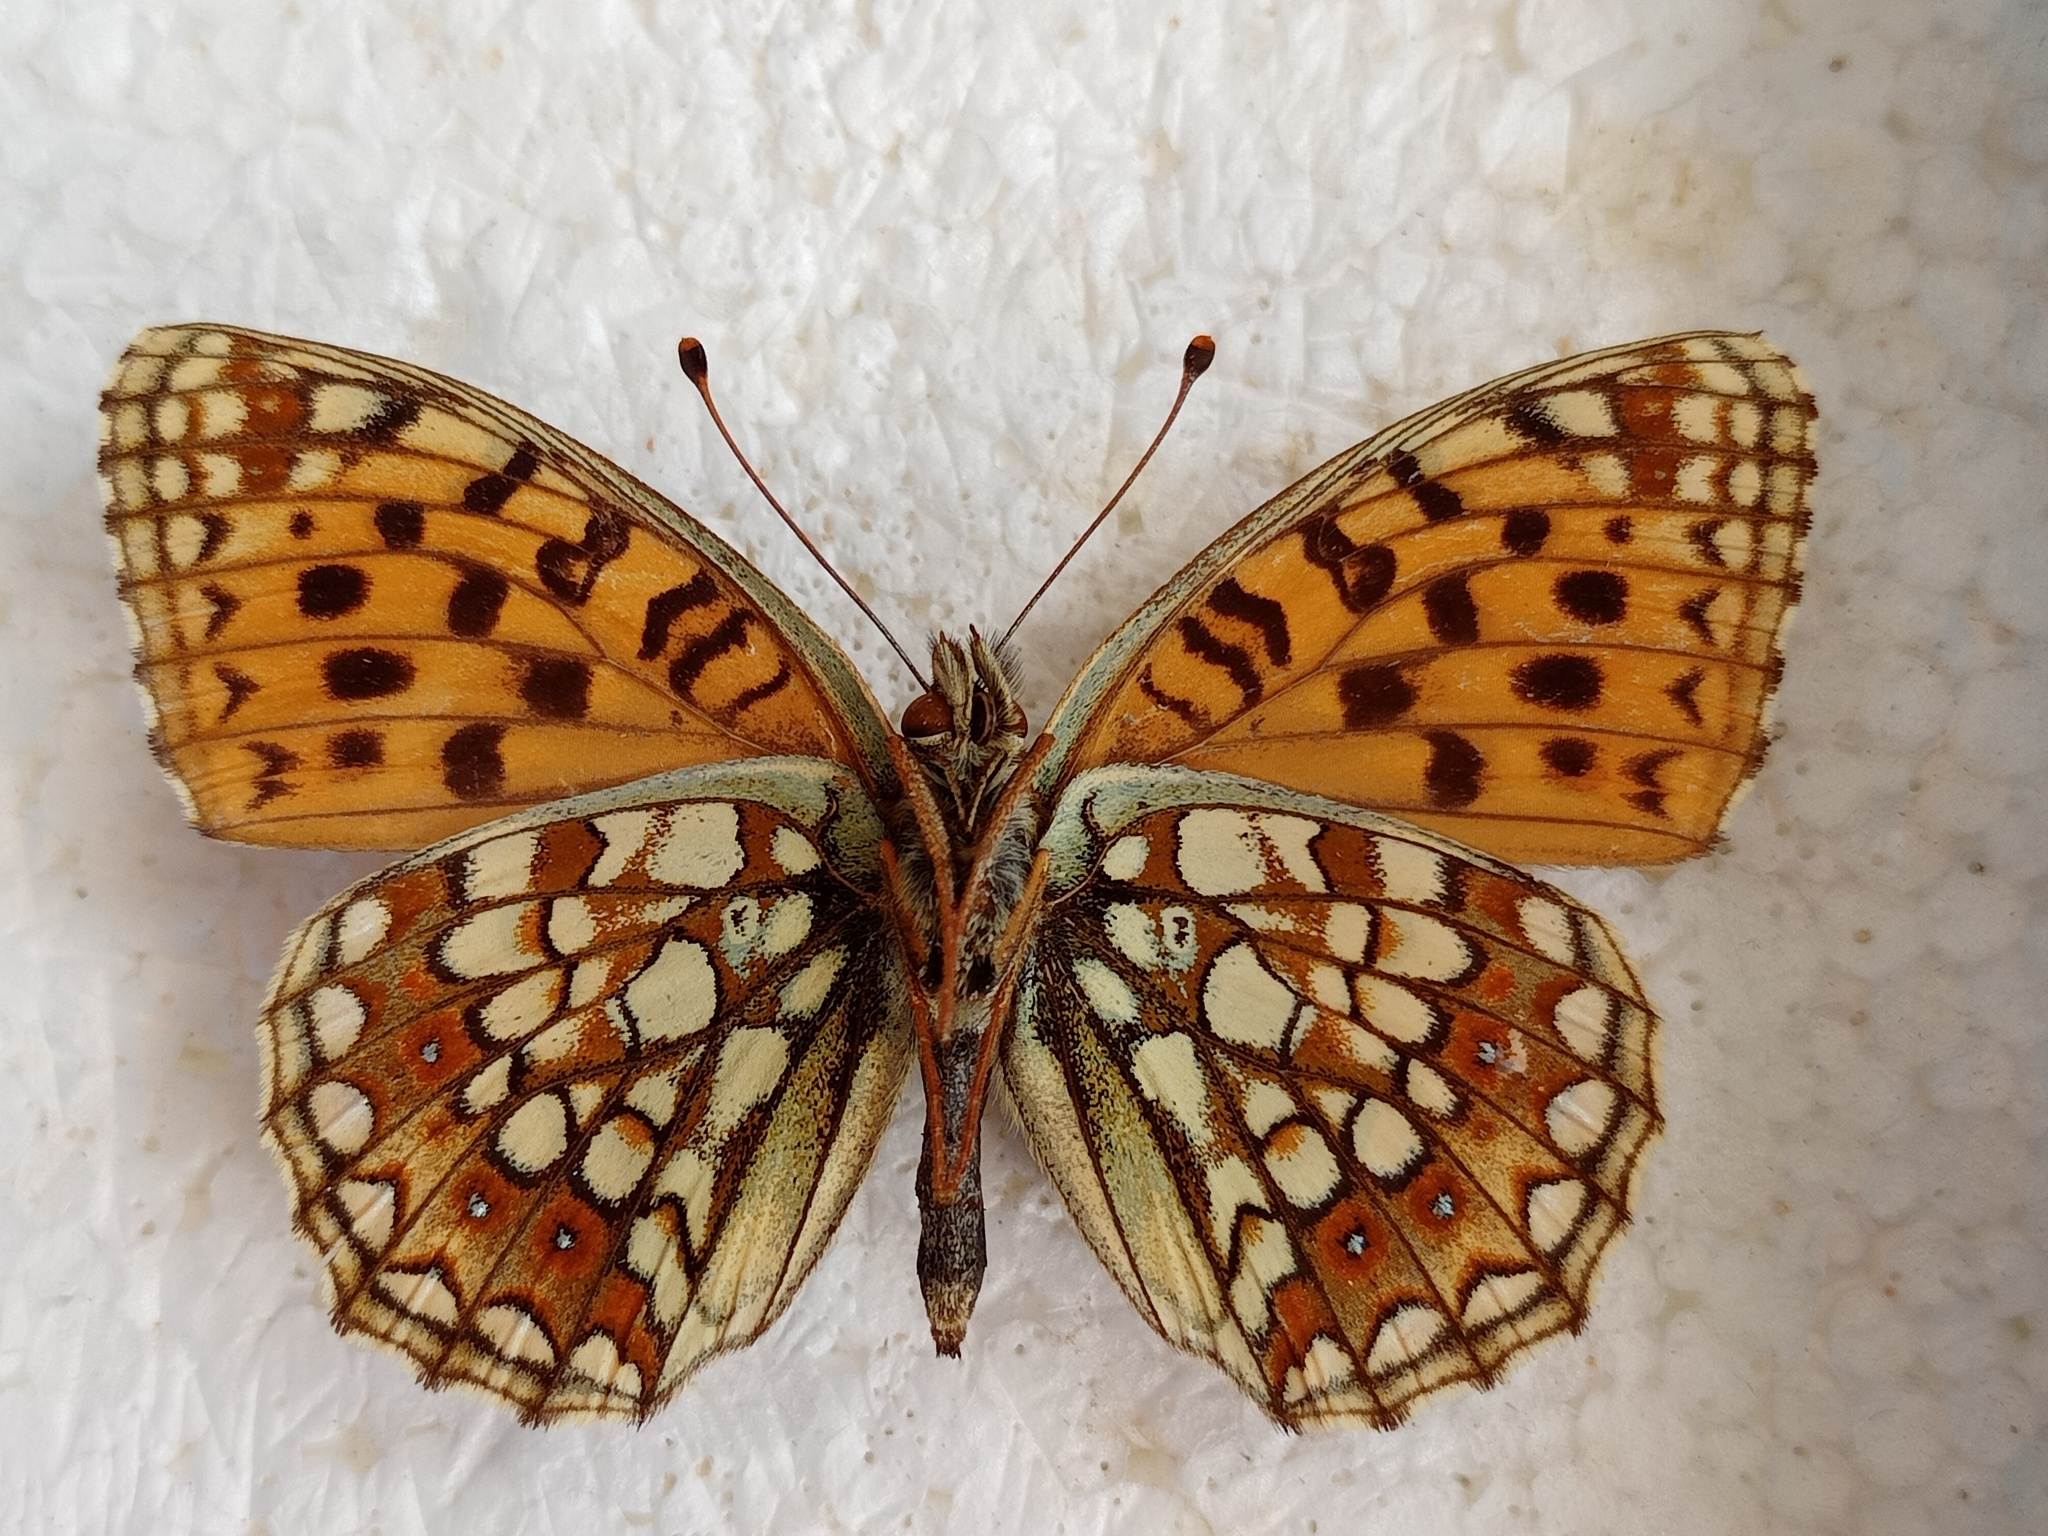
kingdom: Animalia
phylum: Arthropoda
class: Insecta
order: Lepidoptera
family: Nymphalidae
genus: Fabriciana
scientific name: Fabriciana niobe
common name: Niobe fritillary
